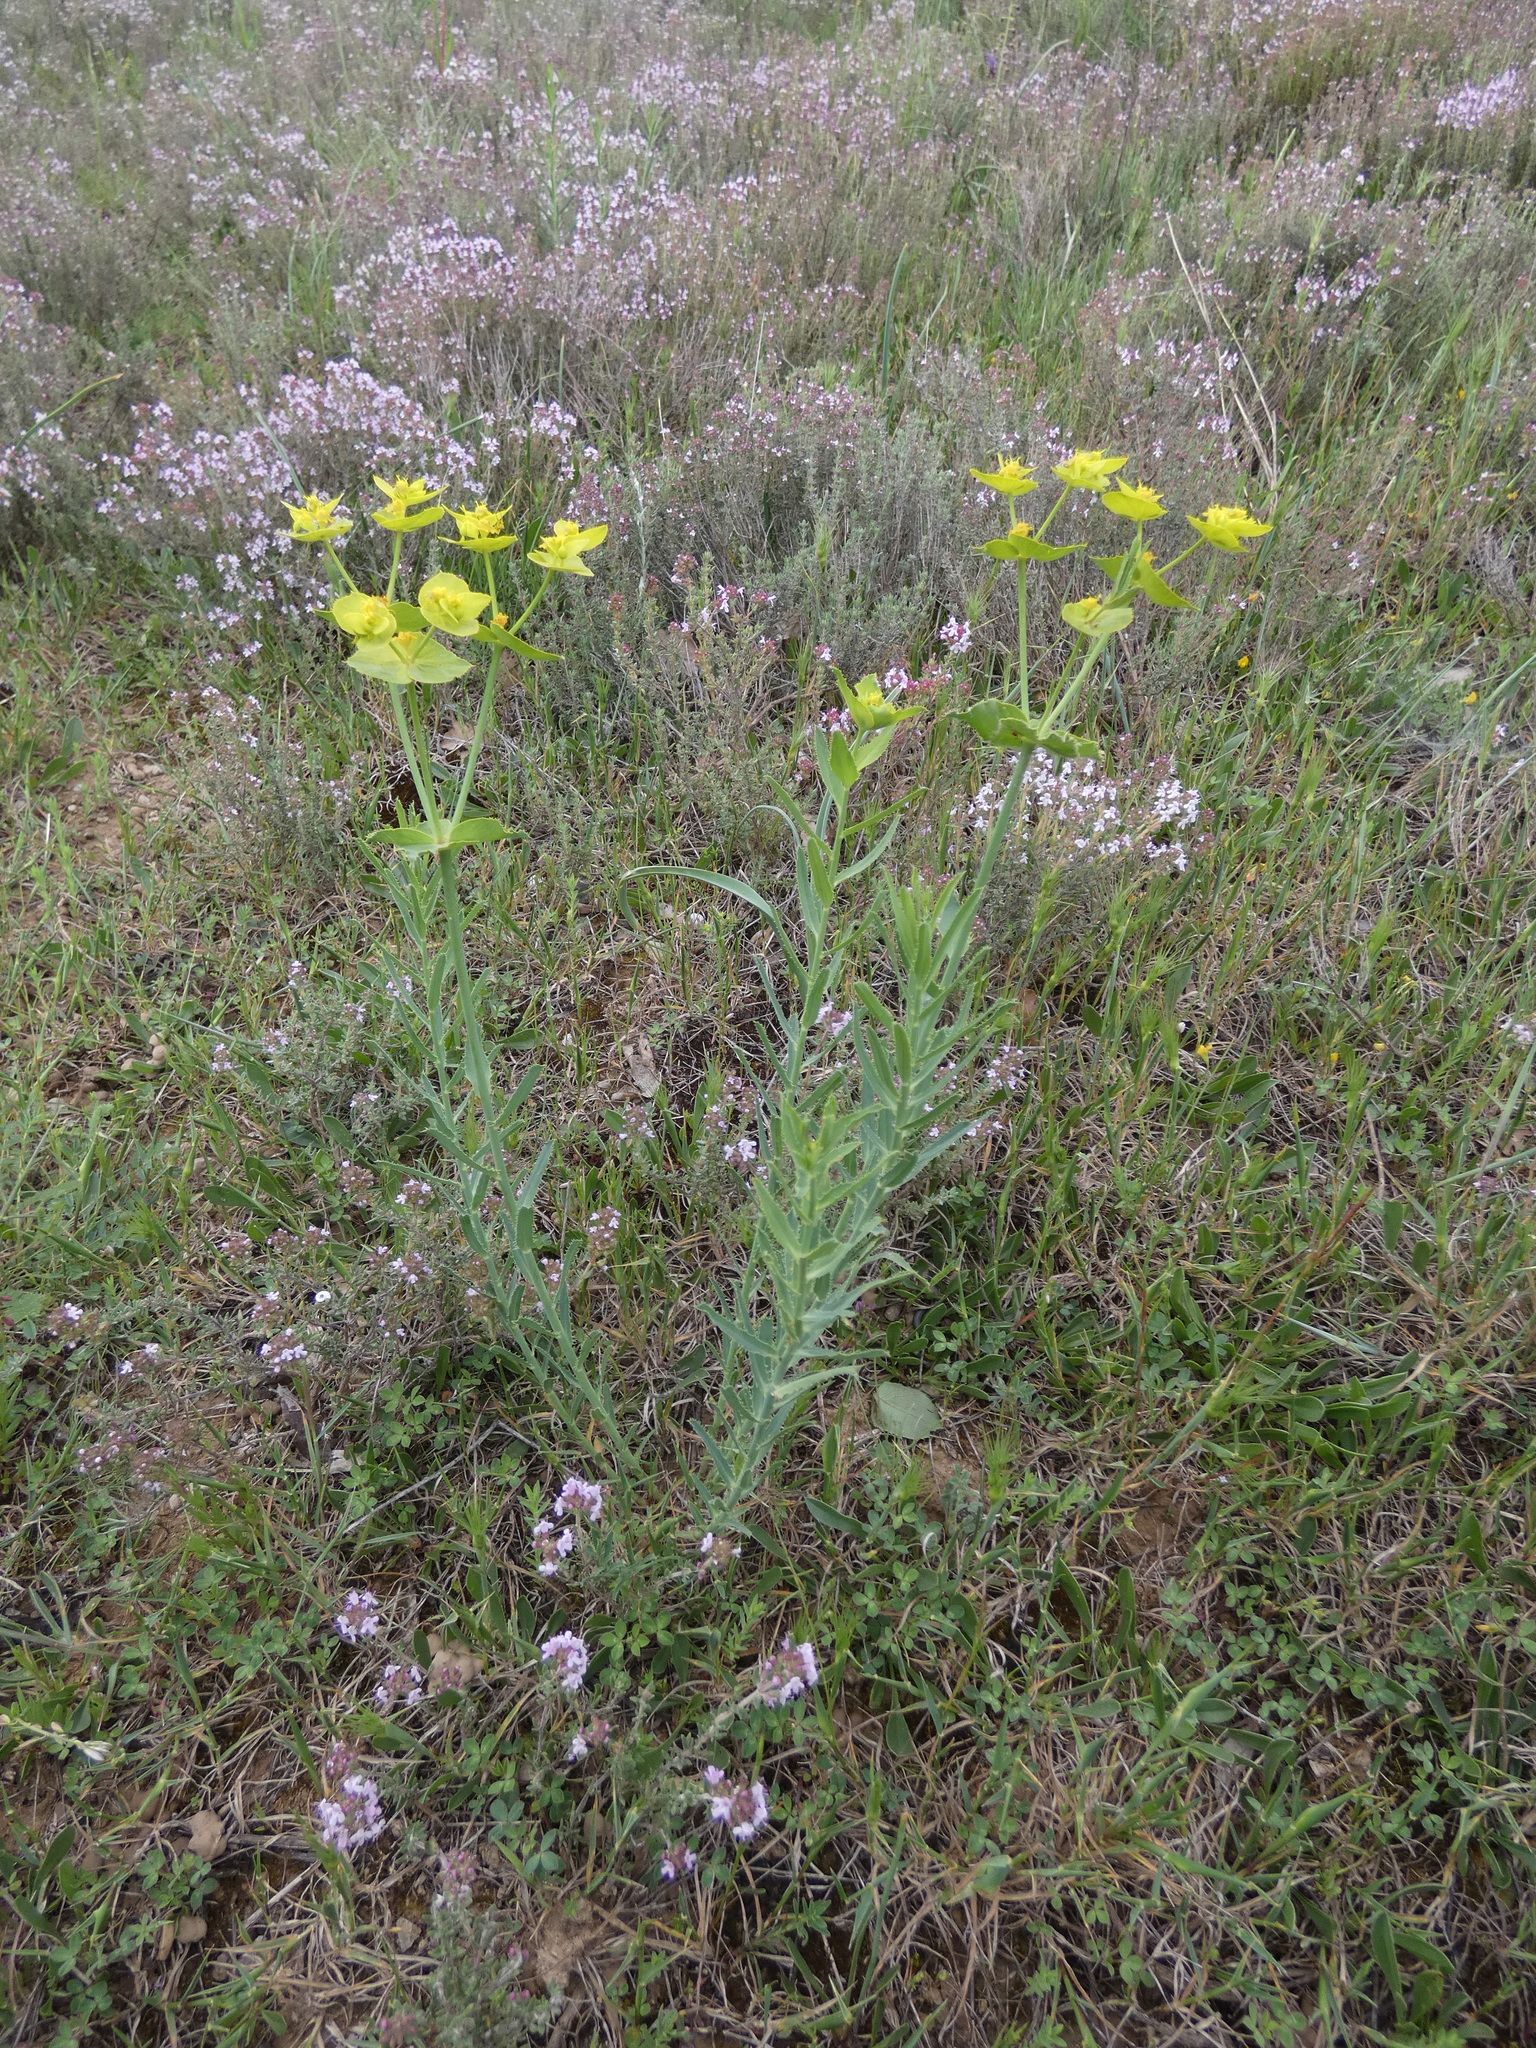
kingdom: Plantae
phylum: Tracheophyta
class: Magnoliopsida
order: Malpighiales
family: Euphorbiaceae
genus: Euphorbia
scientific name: Euphorbia serrata
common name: Serrate spurge
